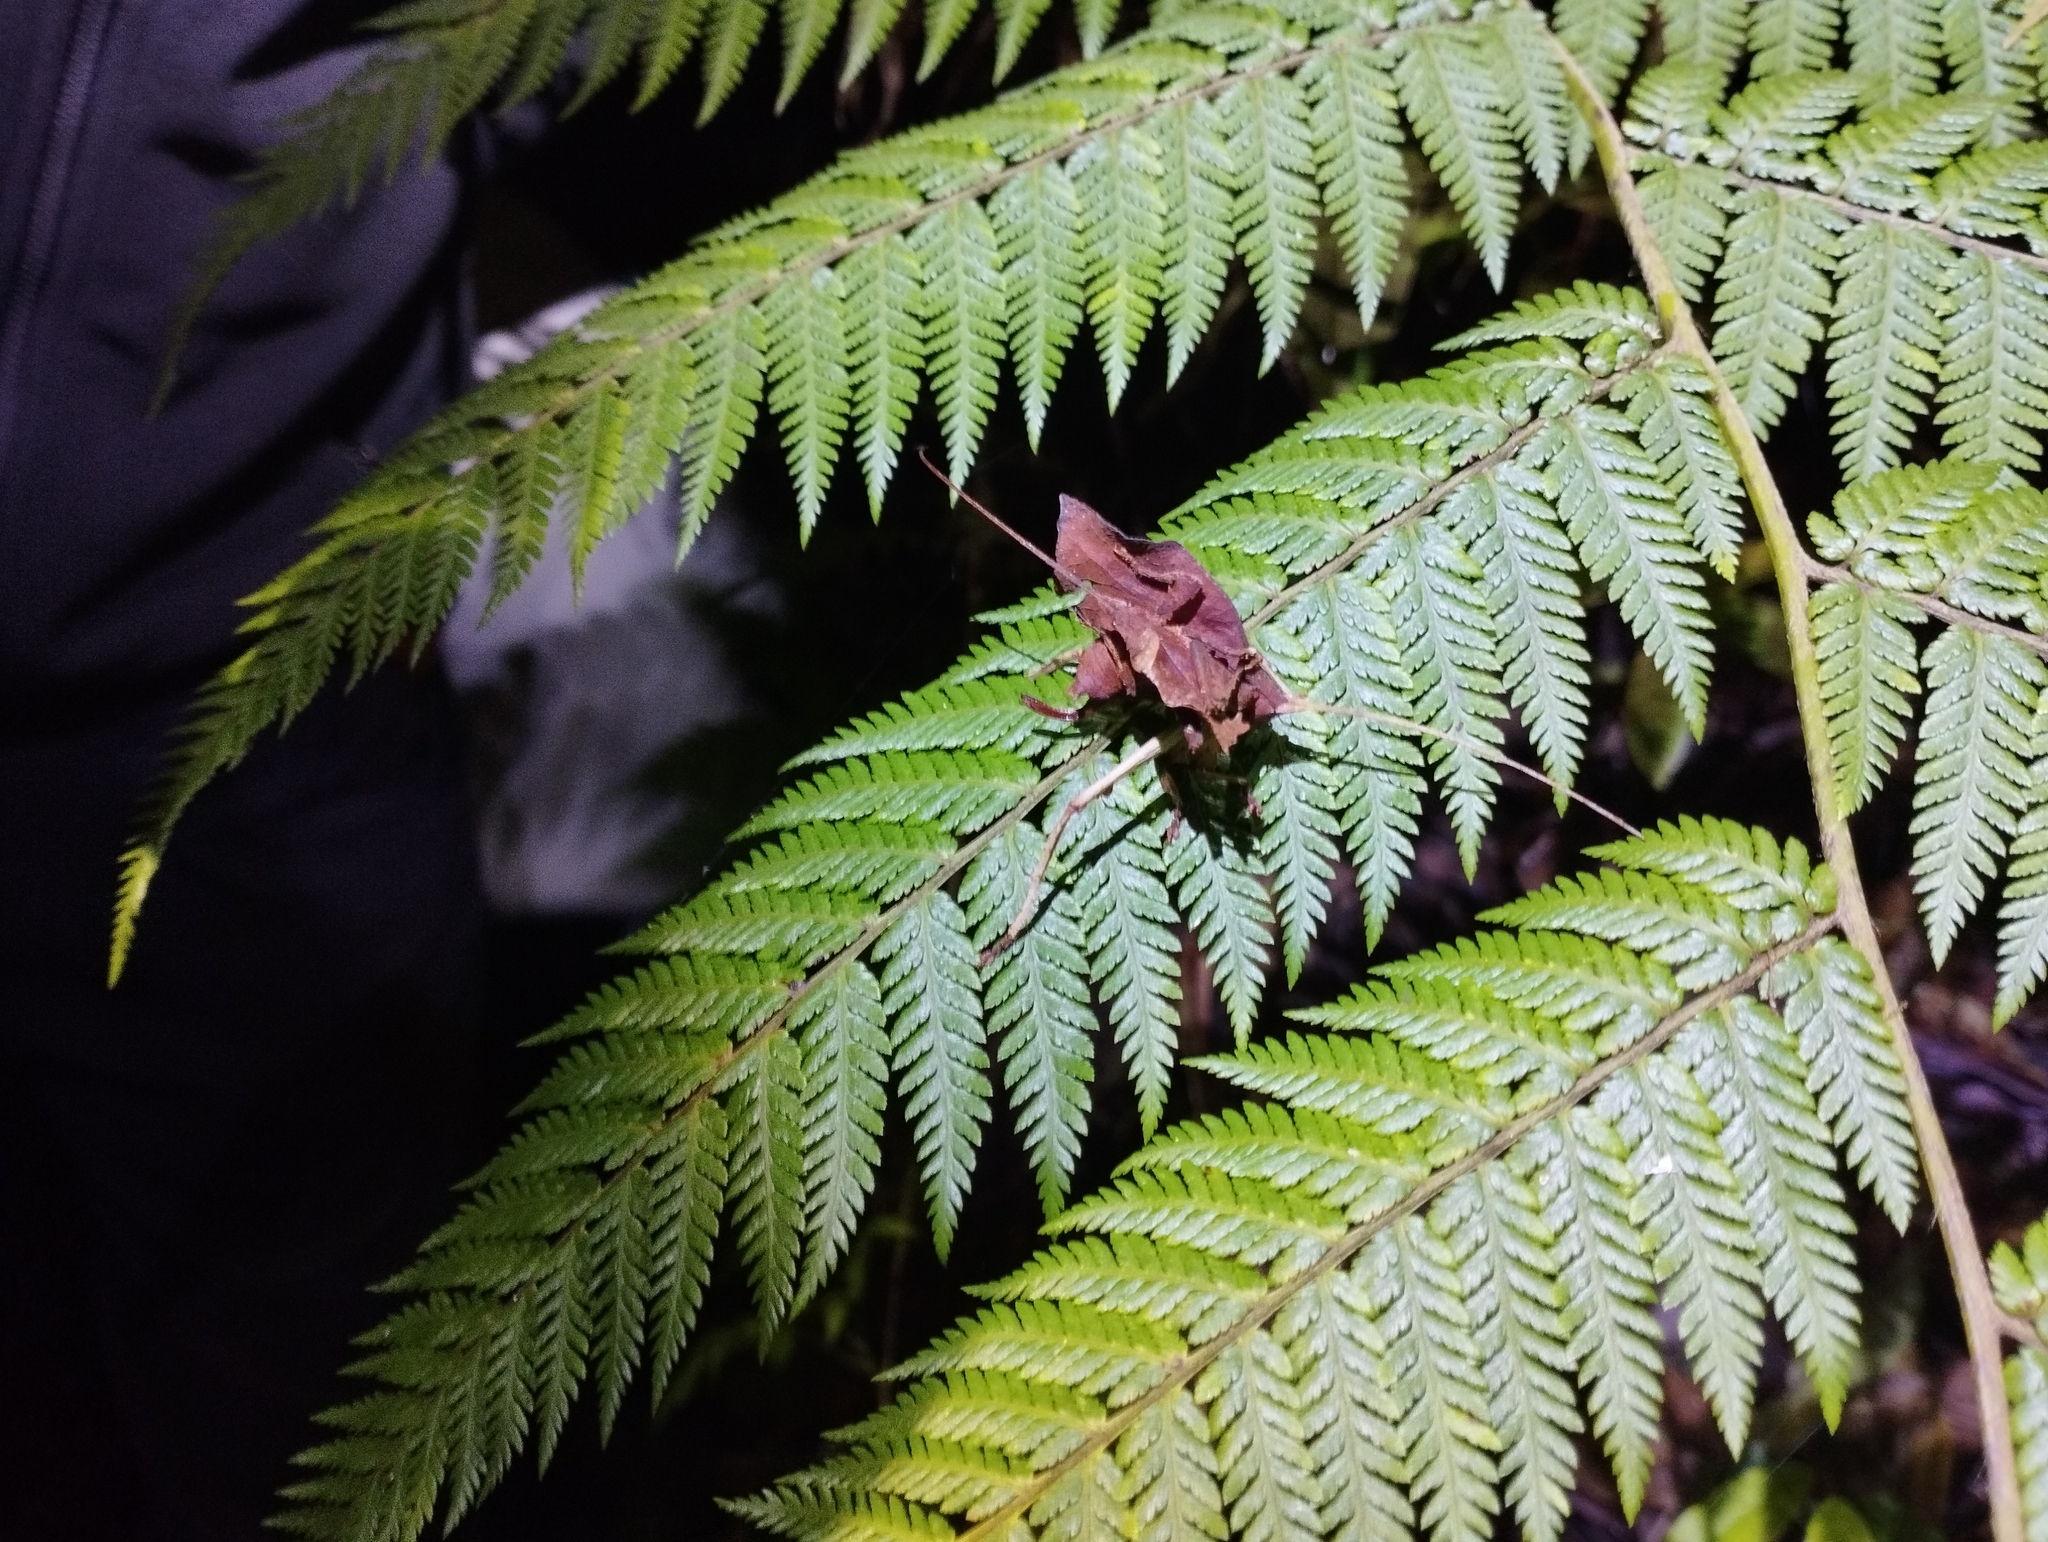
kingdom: Animalia
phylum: Arthropoda
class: Insecta
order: Orthoptera
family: Tettigoniidae
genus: Typophyllum
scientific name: Typophyllum zingara
